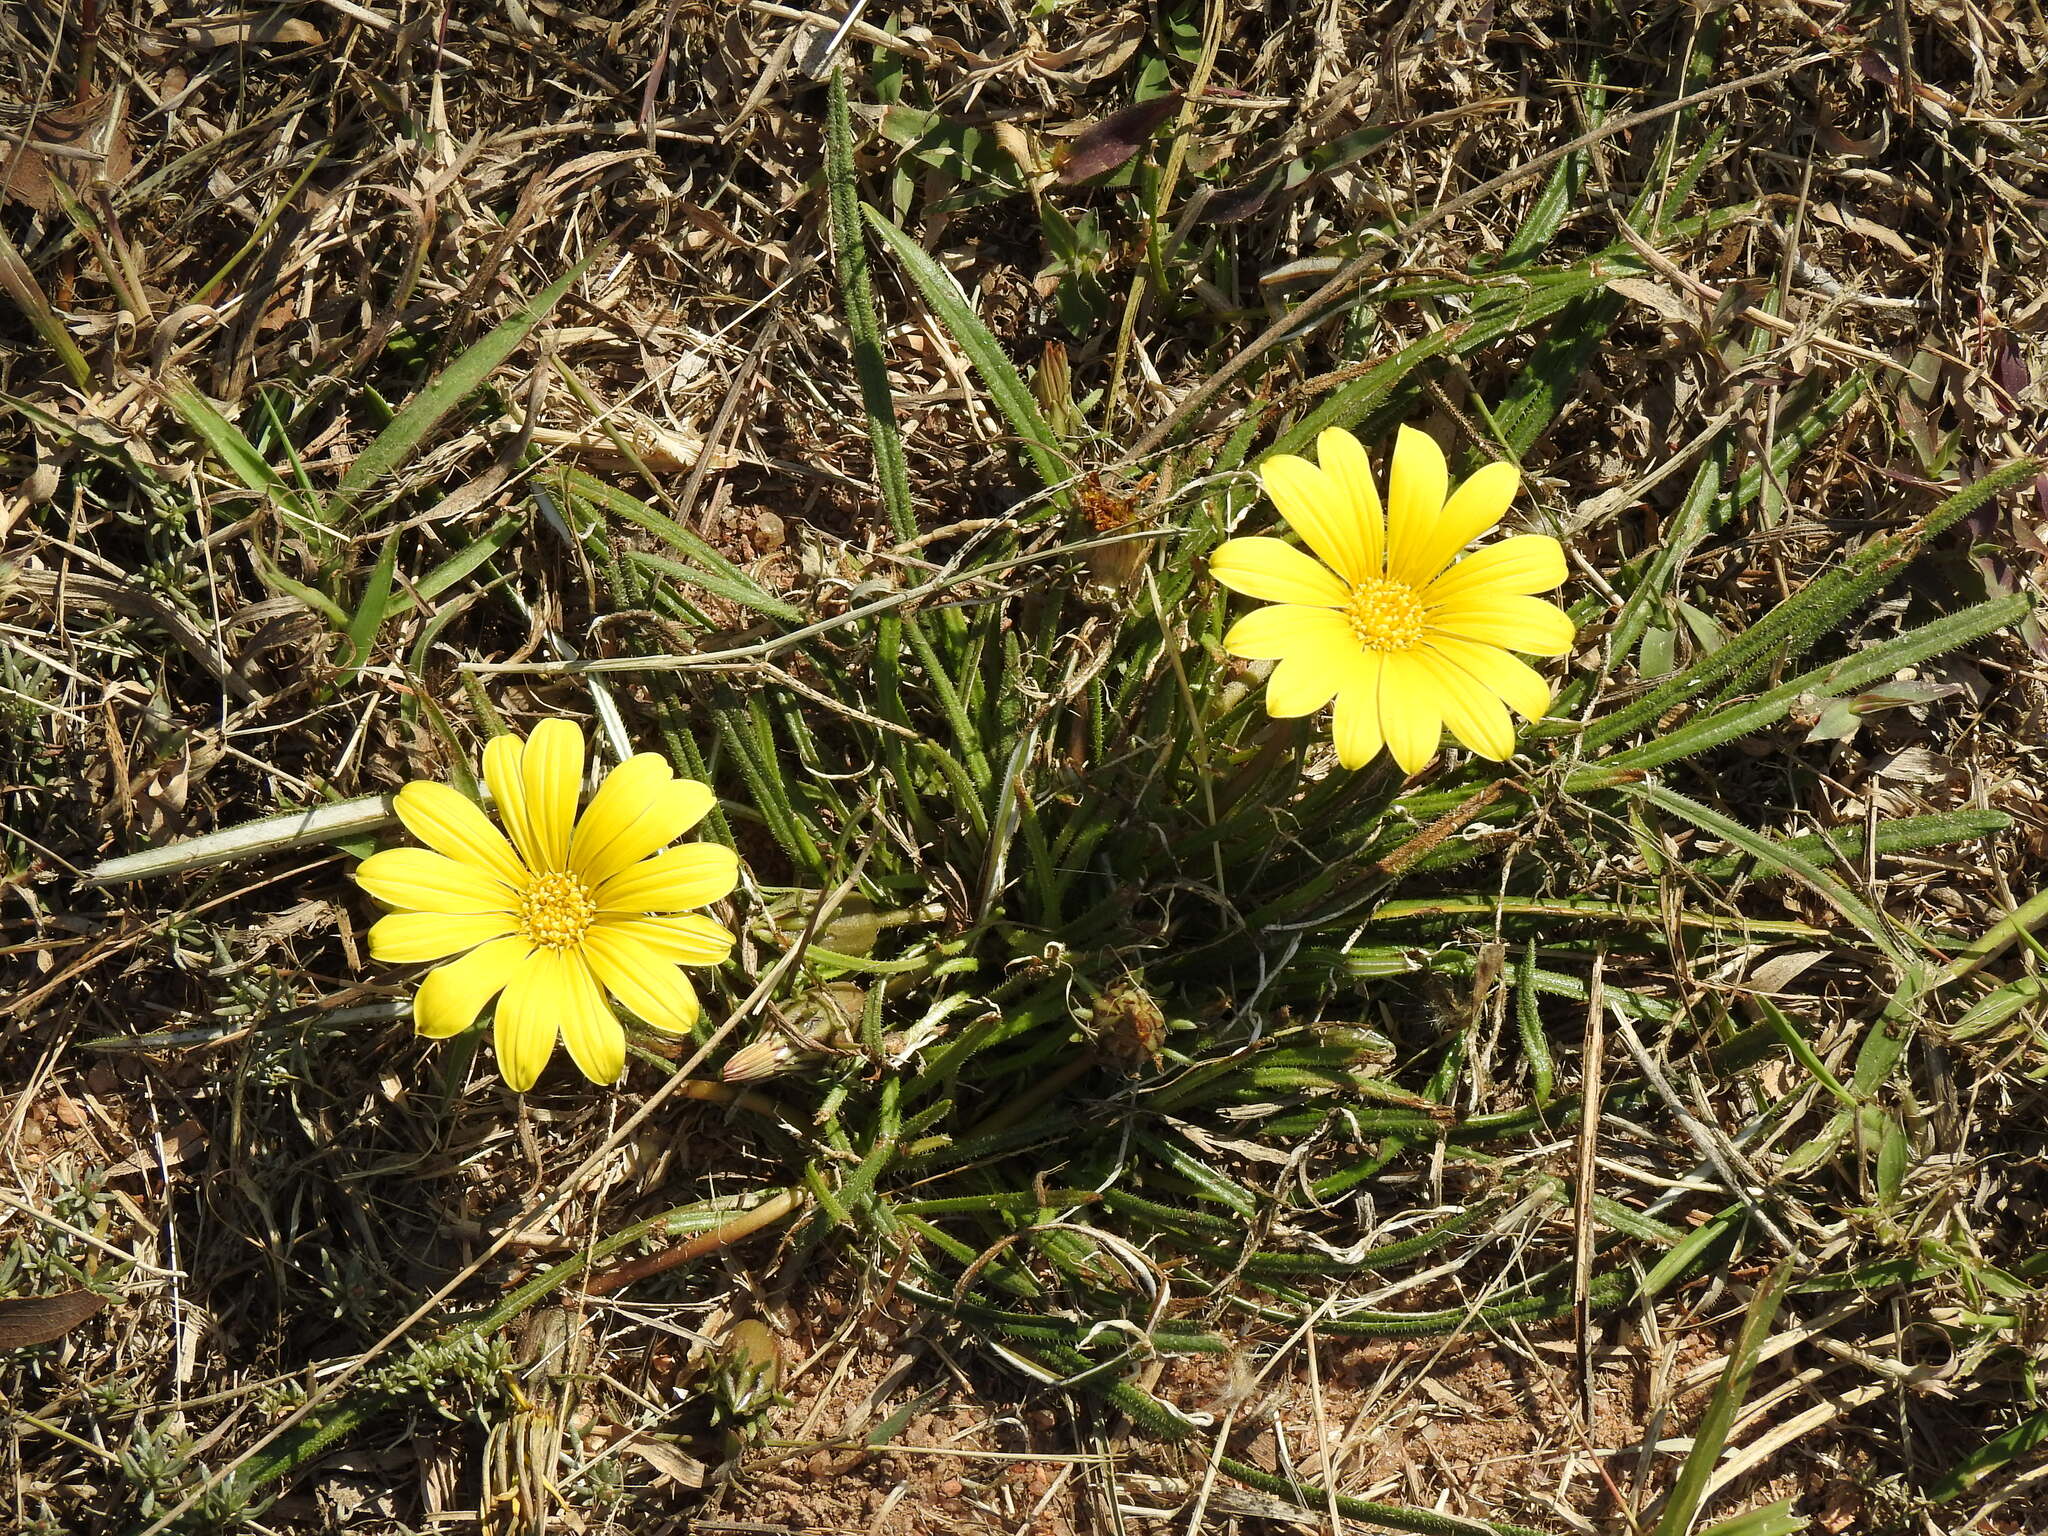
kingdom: Plantae
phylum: Tracheophyta
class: Magnoliopsida
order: Asterales
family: Asteraceae
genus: Gazania
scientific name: Gazania krebsiana
